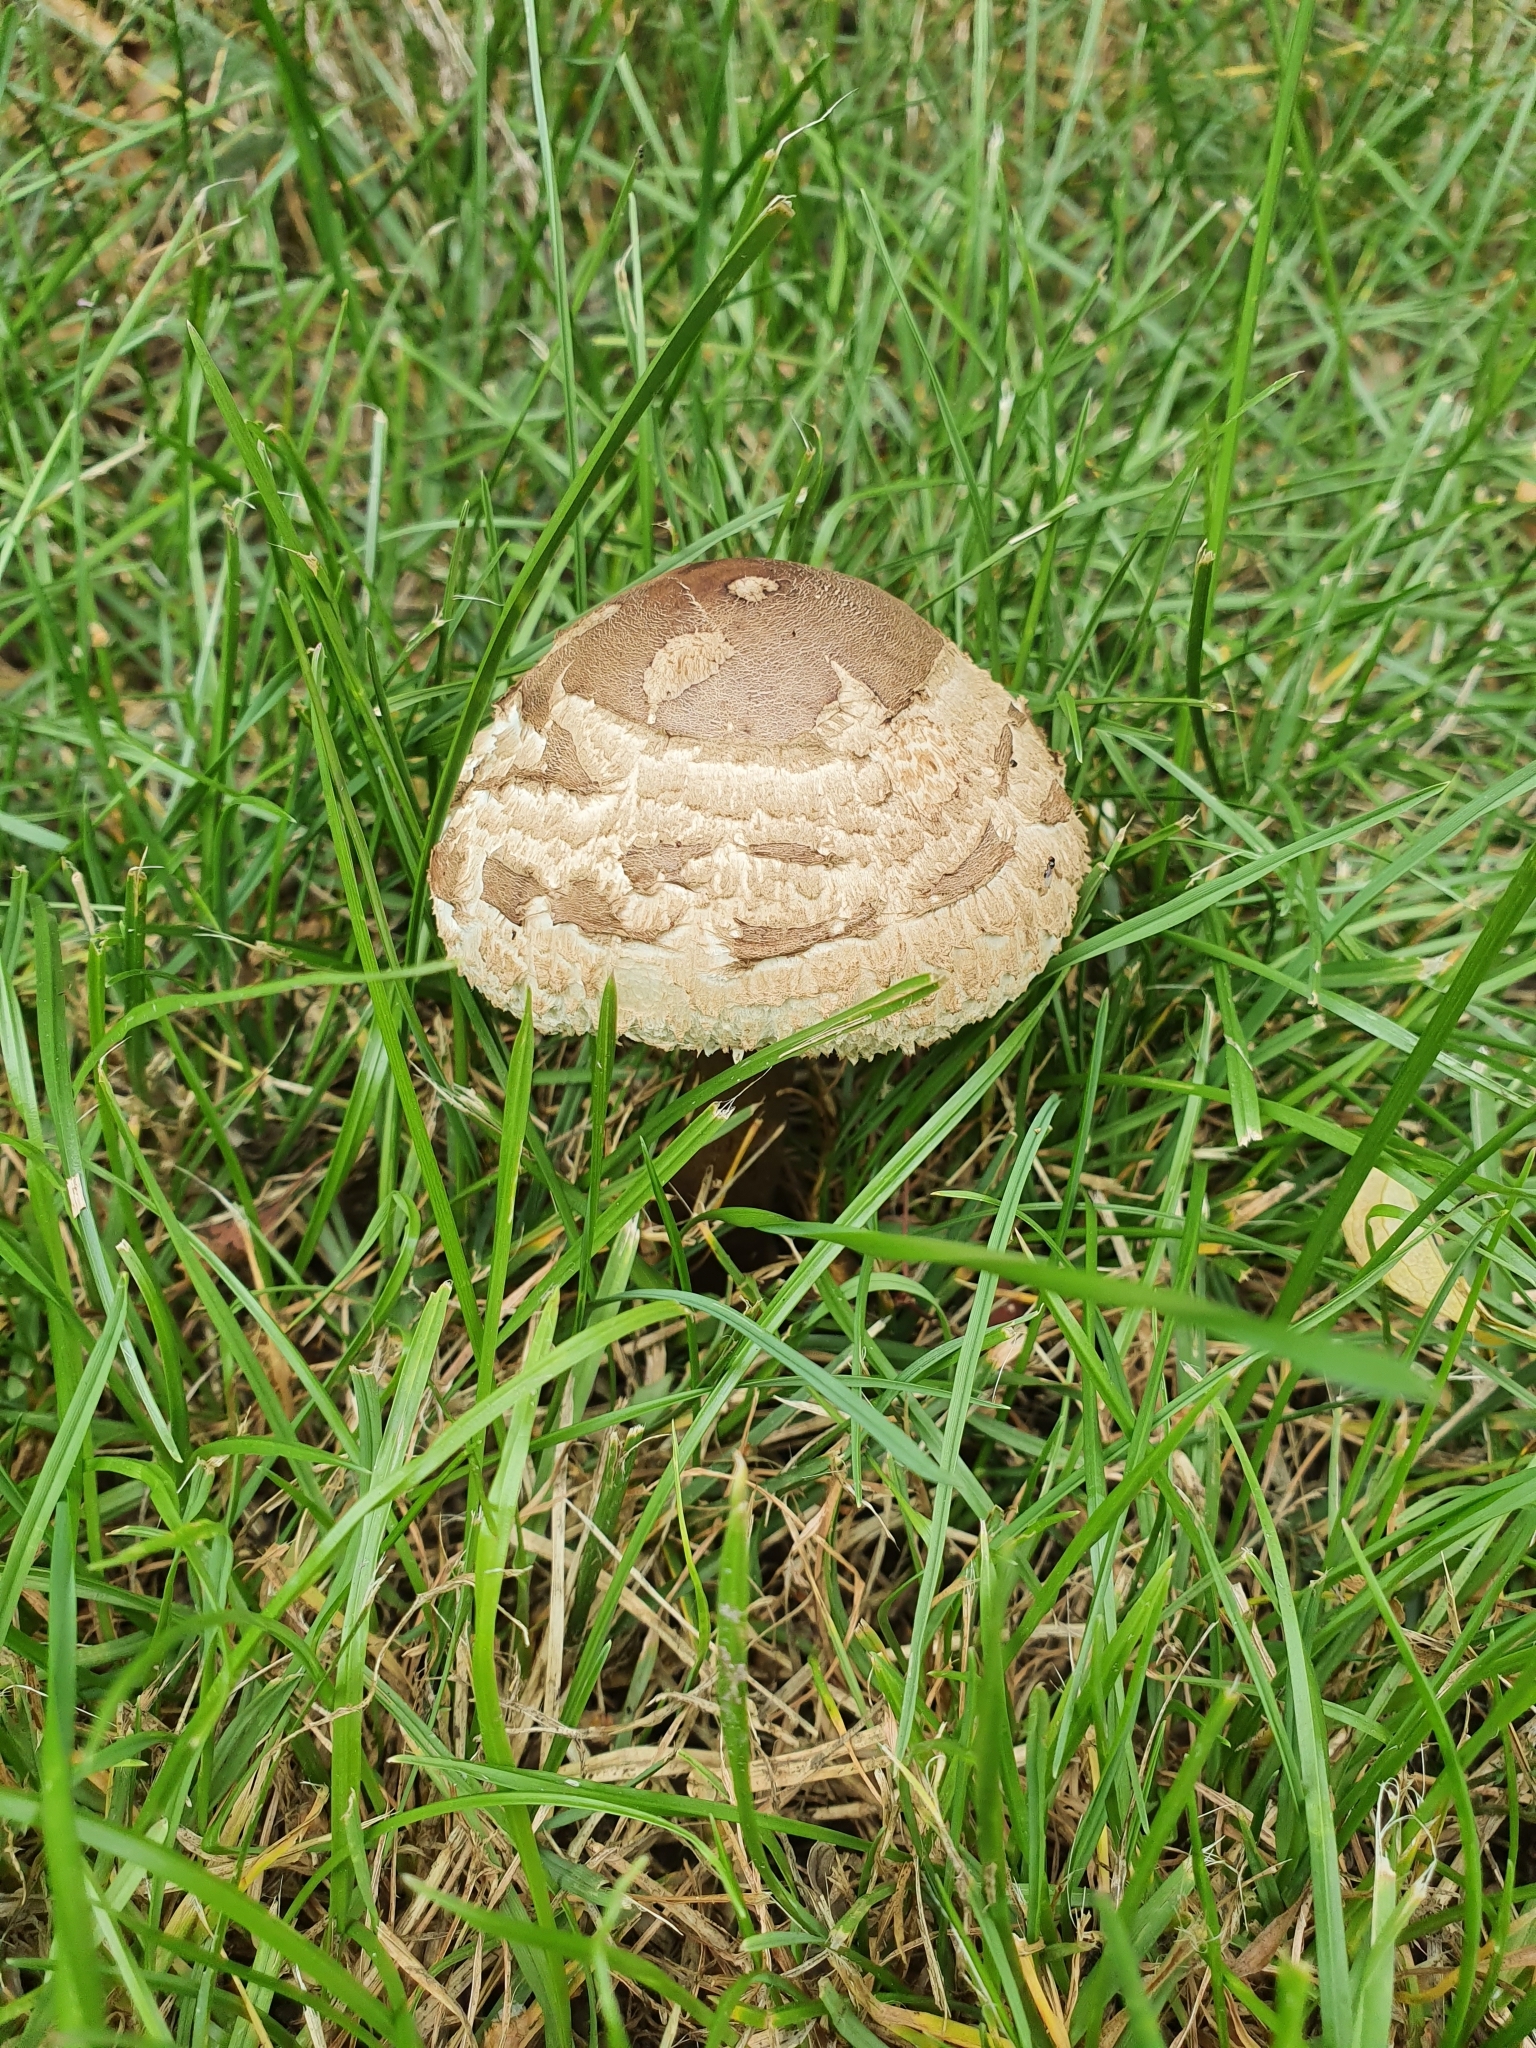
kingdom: Fungi
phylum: Basidiomycota
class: Agaricomycetes
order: Agaricales
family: Agaricaceae
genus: Macrolepiota
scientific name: Macrolepiota procera
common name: Parasol
